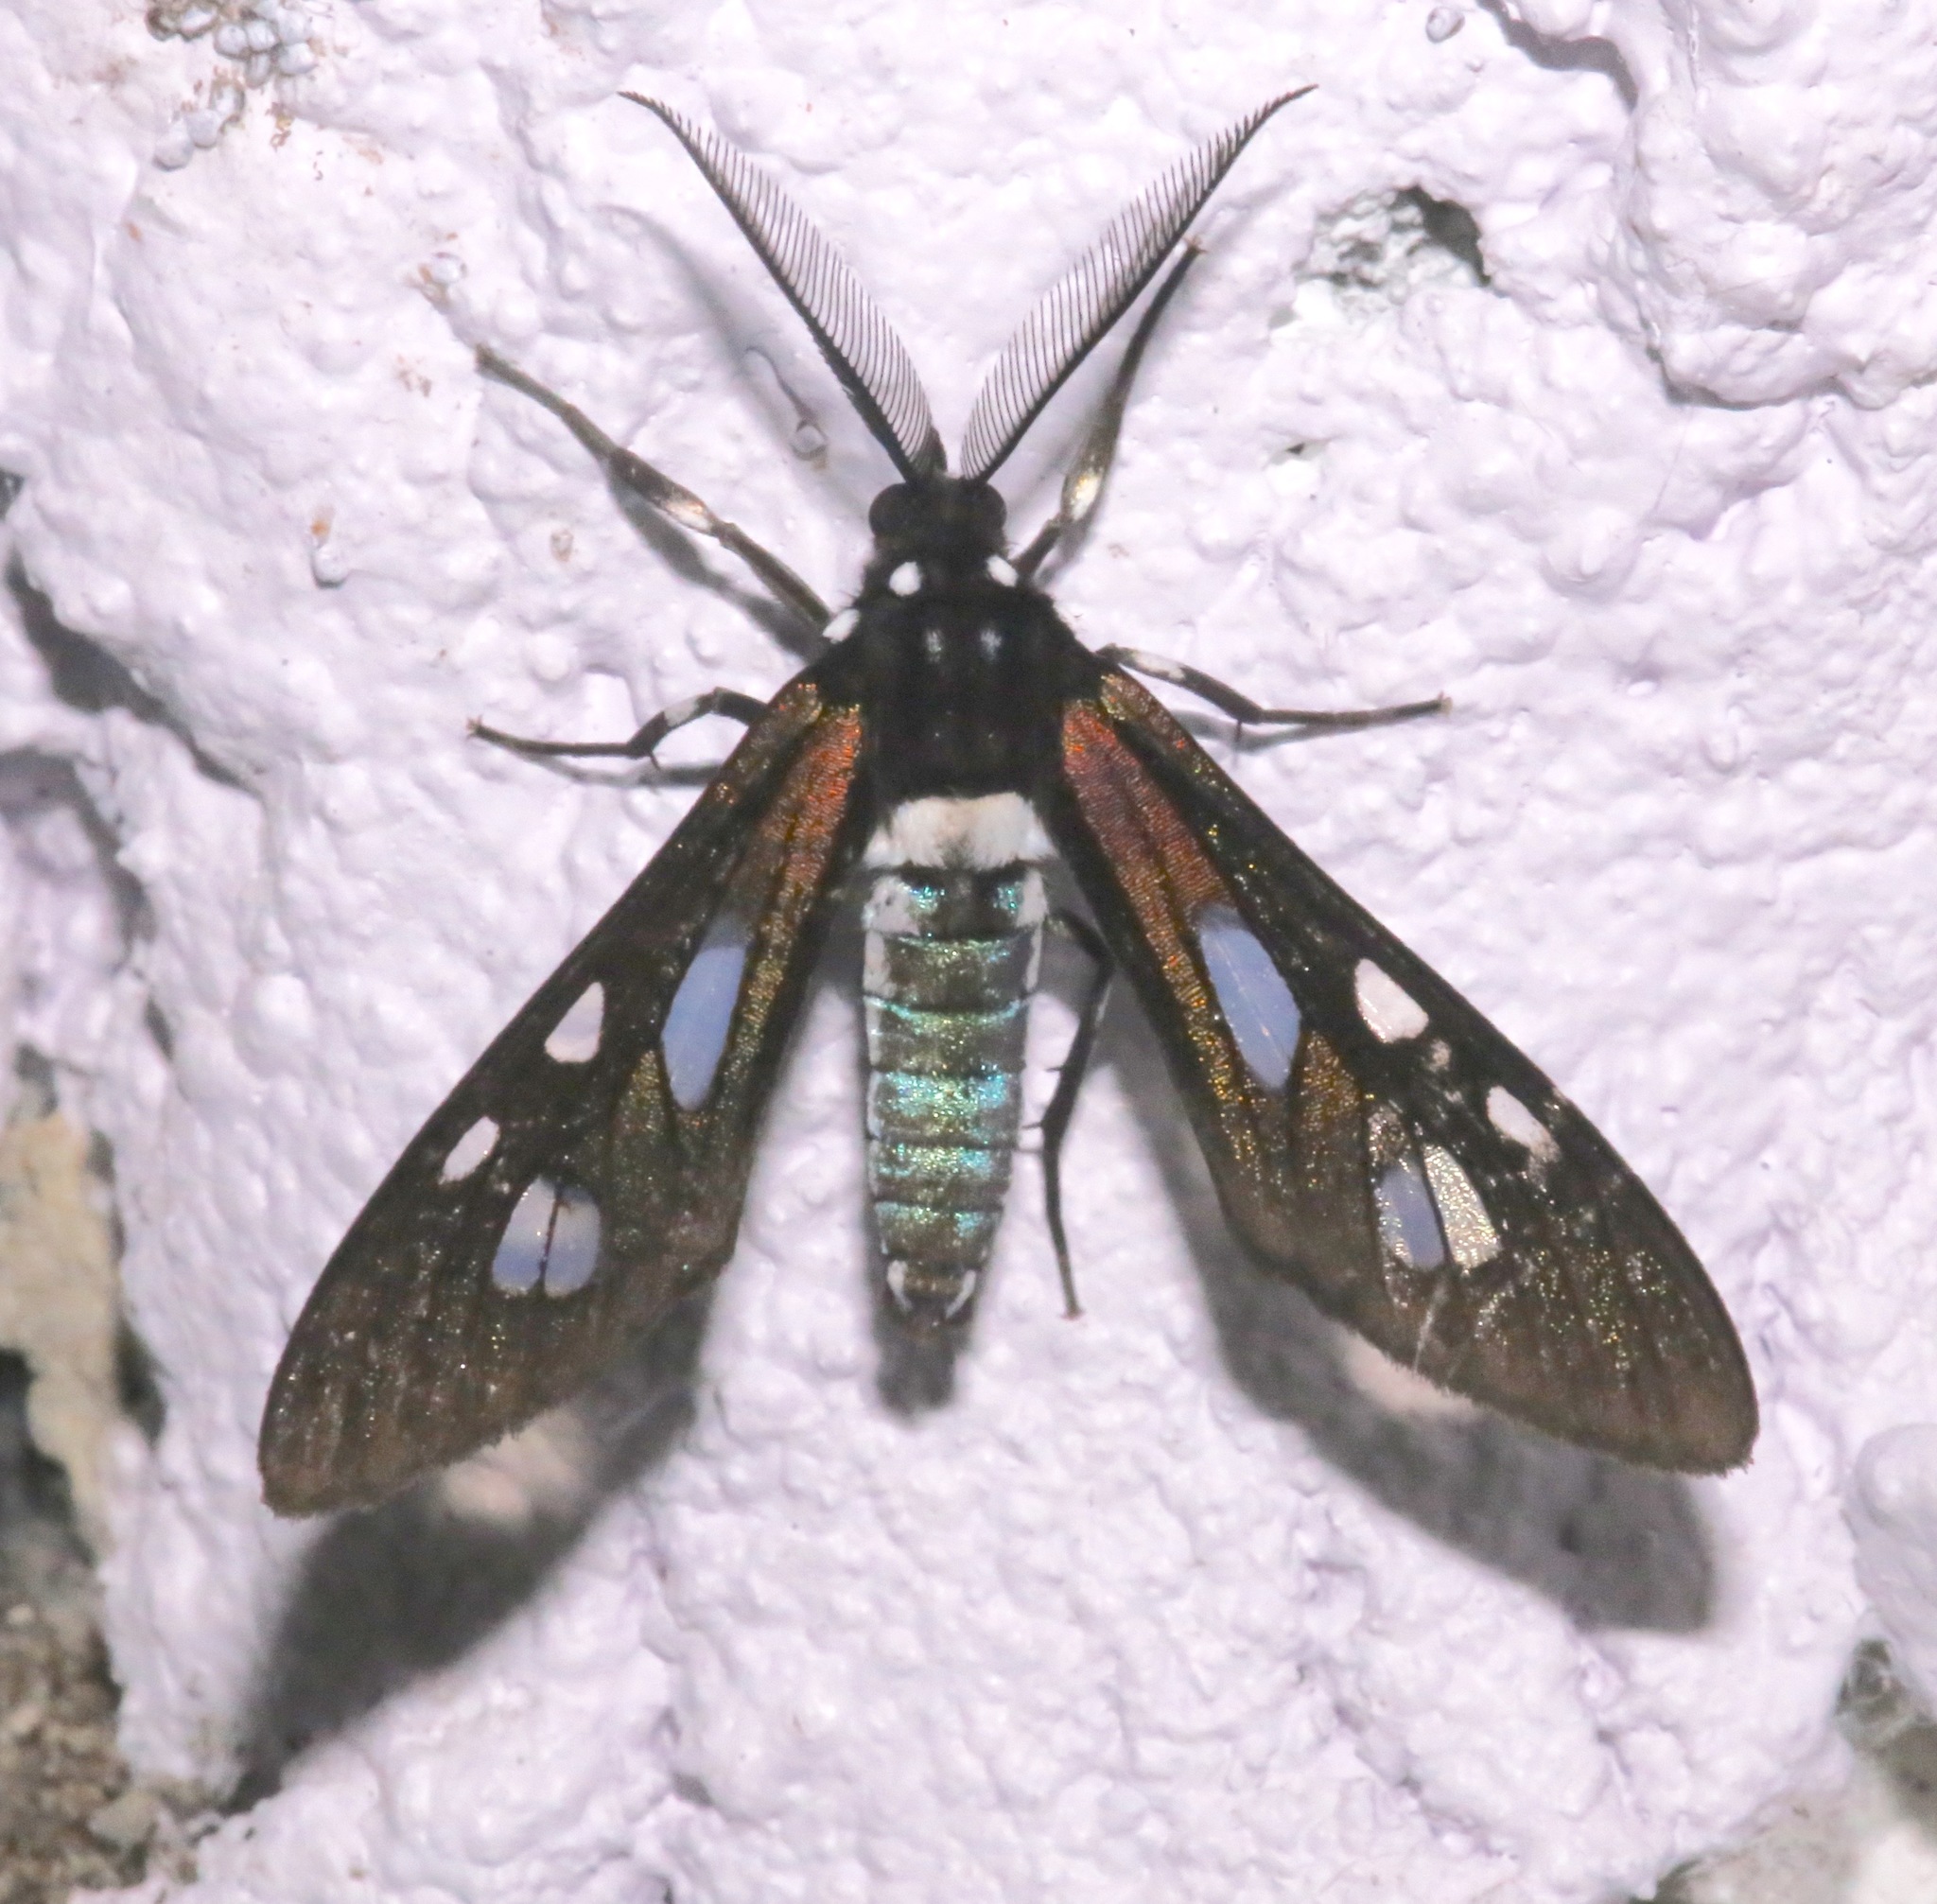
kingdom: Animalia
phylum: Arthropoda
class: Insecta
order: Lepidoptera
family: Erebidae
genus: Phaio
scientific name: Phaio cephalena
